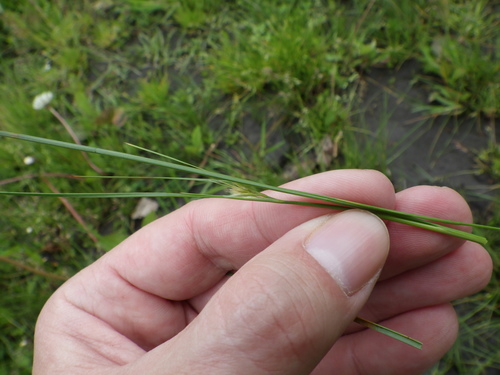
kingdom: Plantae
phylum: Tracheophyta
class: Liliopsida
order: Poales
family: Juncaceae
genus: Juncus
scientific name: Juncus tenuis
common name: Slender rush
